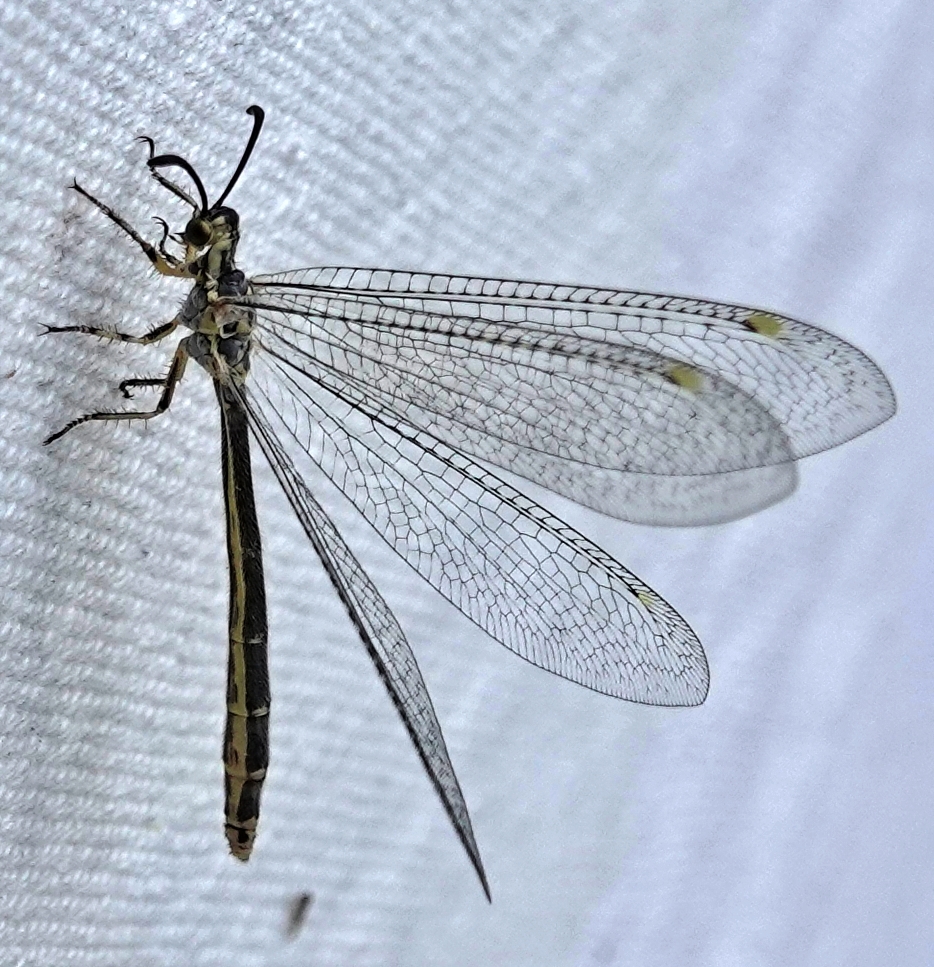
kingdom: Animalia
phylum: Arthropoda
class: Insecta
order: Neuroptera
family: Myrmeleontidae
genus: Scotoleon
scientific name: Scotoleon nigrilabris
